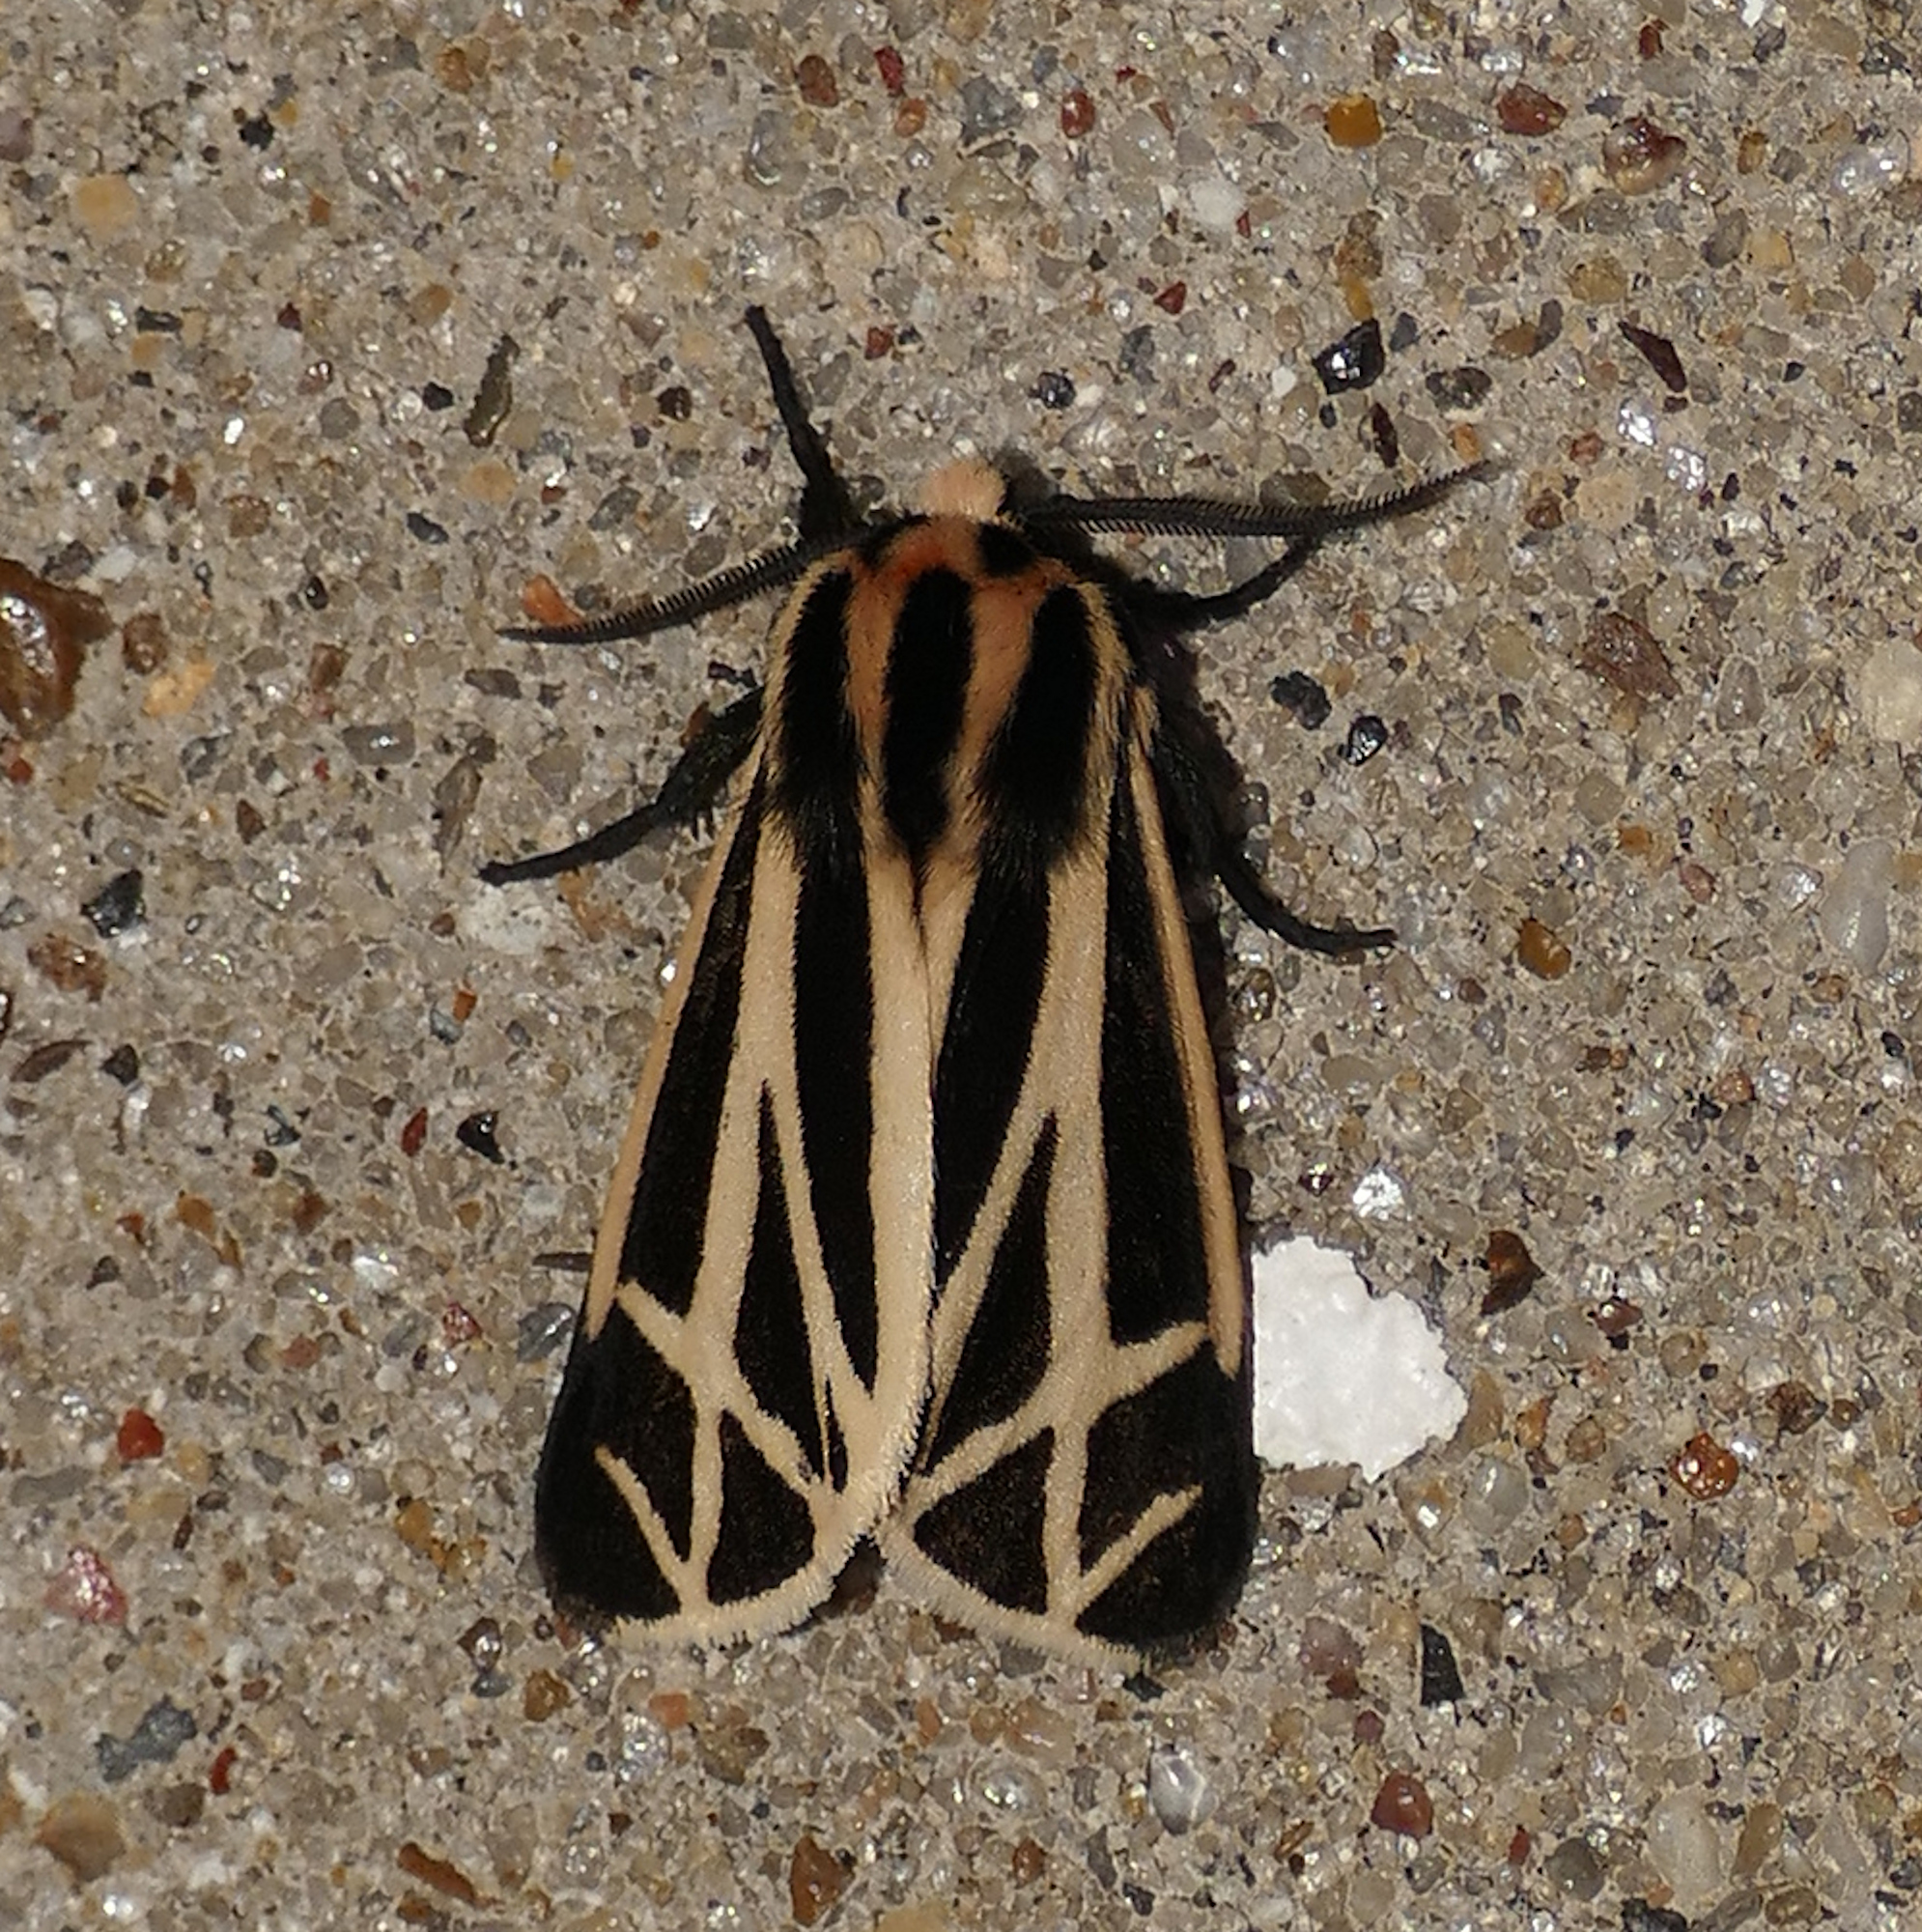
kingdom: Animalia
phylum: Arthropoda
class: Insecta
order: Lepidoptera
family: Erebidae
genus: Apantesis
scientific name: Apantesis phalerata
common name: Harnessed tiger moth
